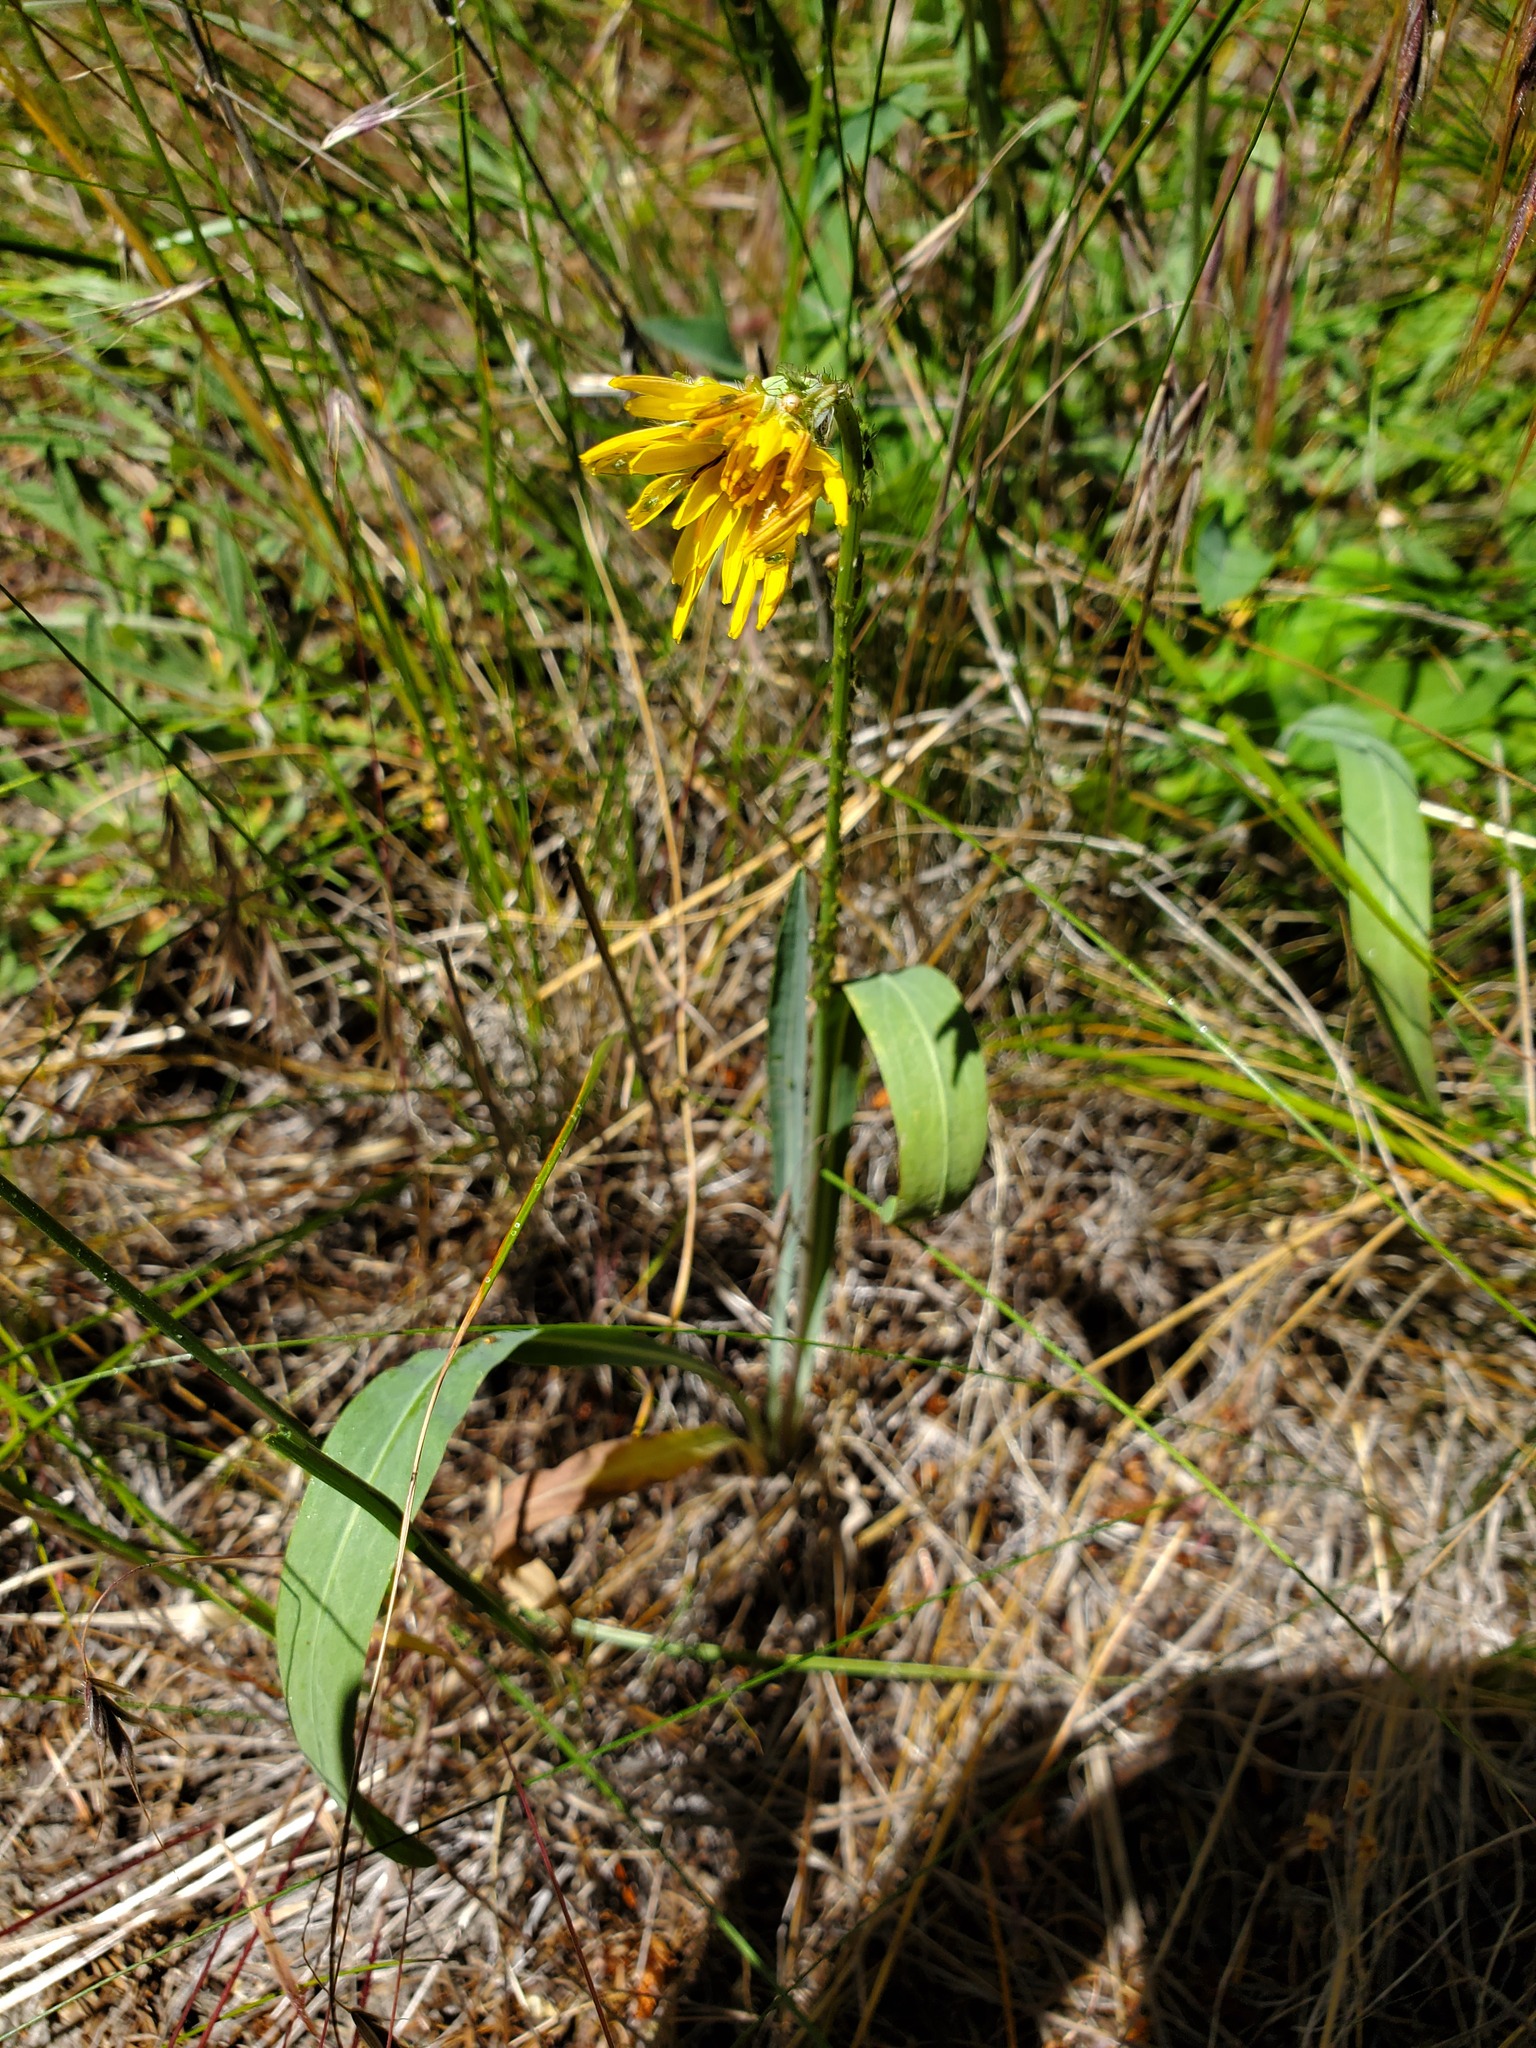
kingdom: Plantae
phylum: Tracheophyta
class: Magnoliopsida
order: Asterales
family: Asteraceae
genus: Agoseris
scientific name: Agoseris glauca
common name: Prairie agoseris
